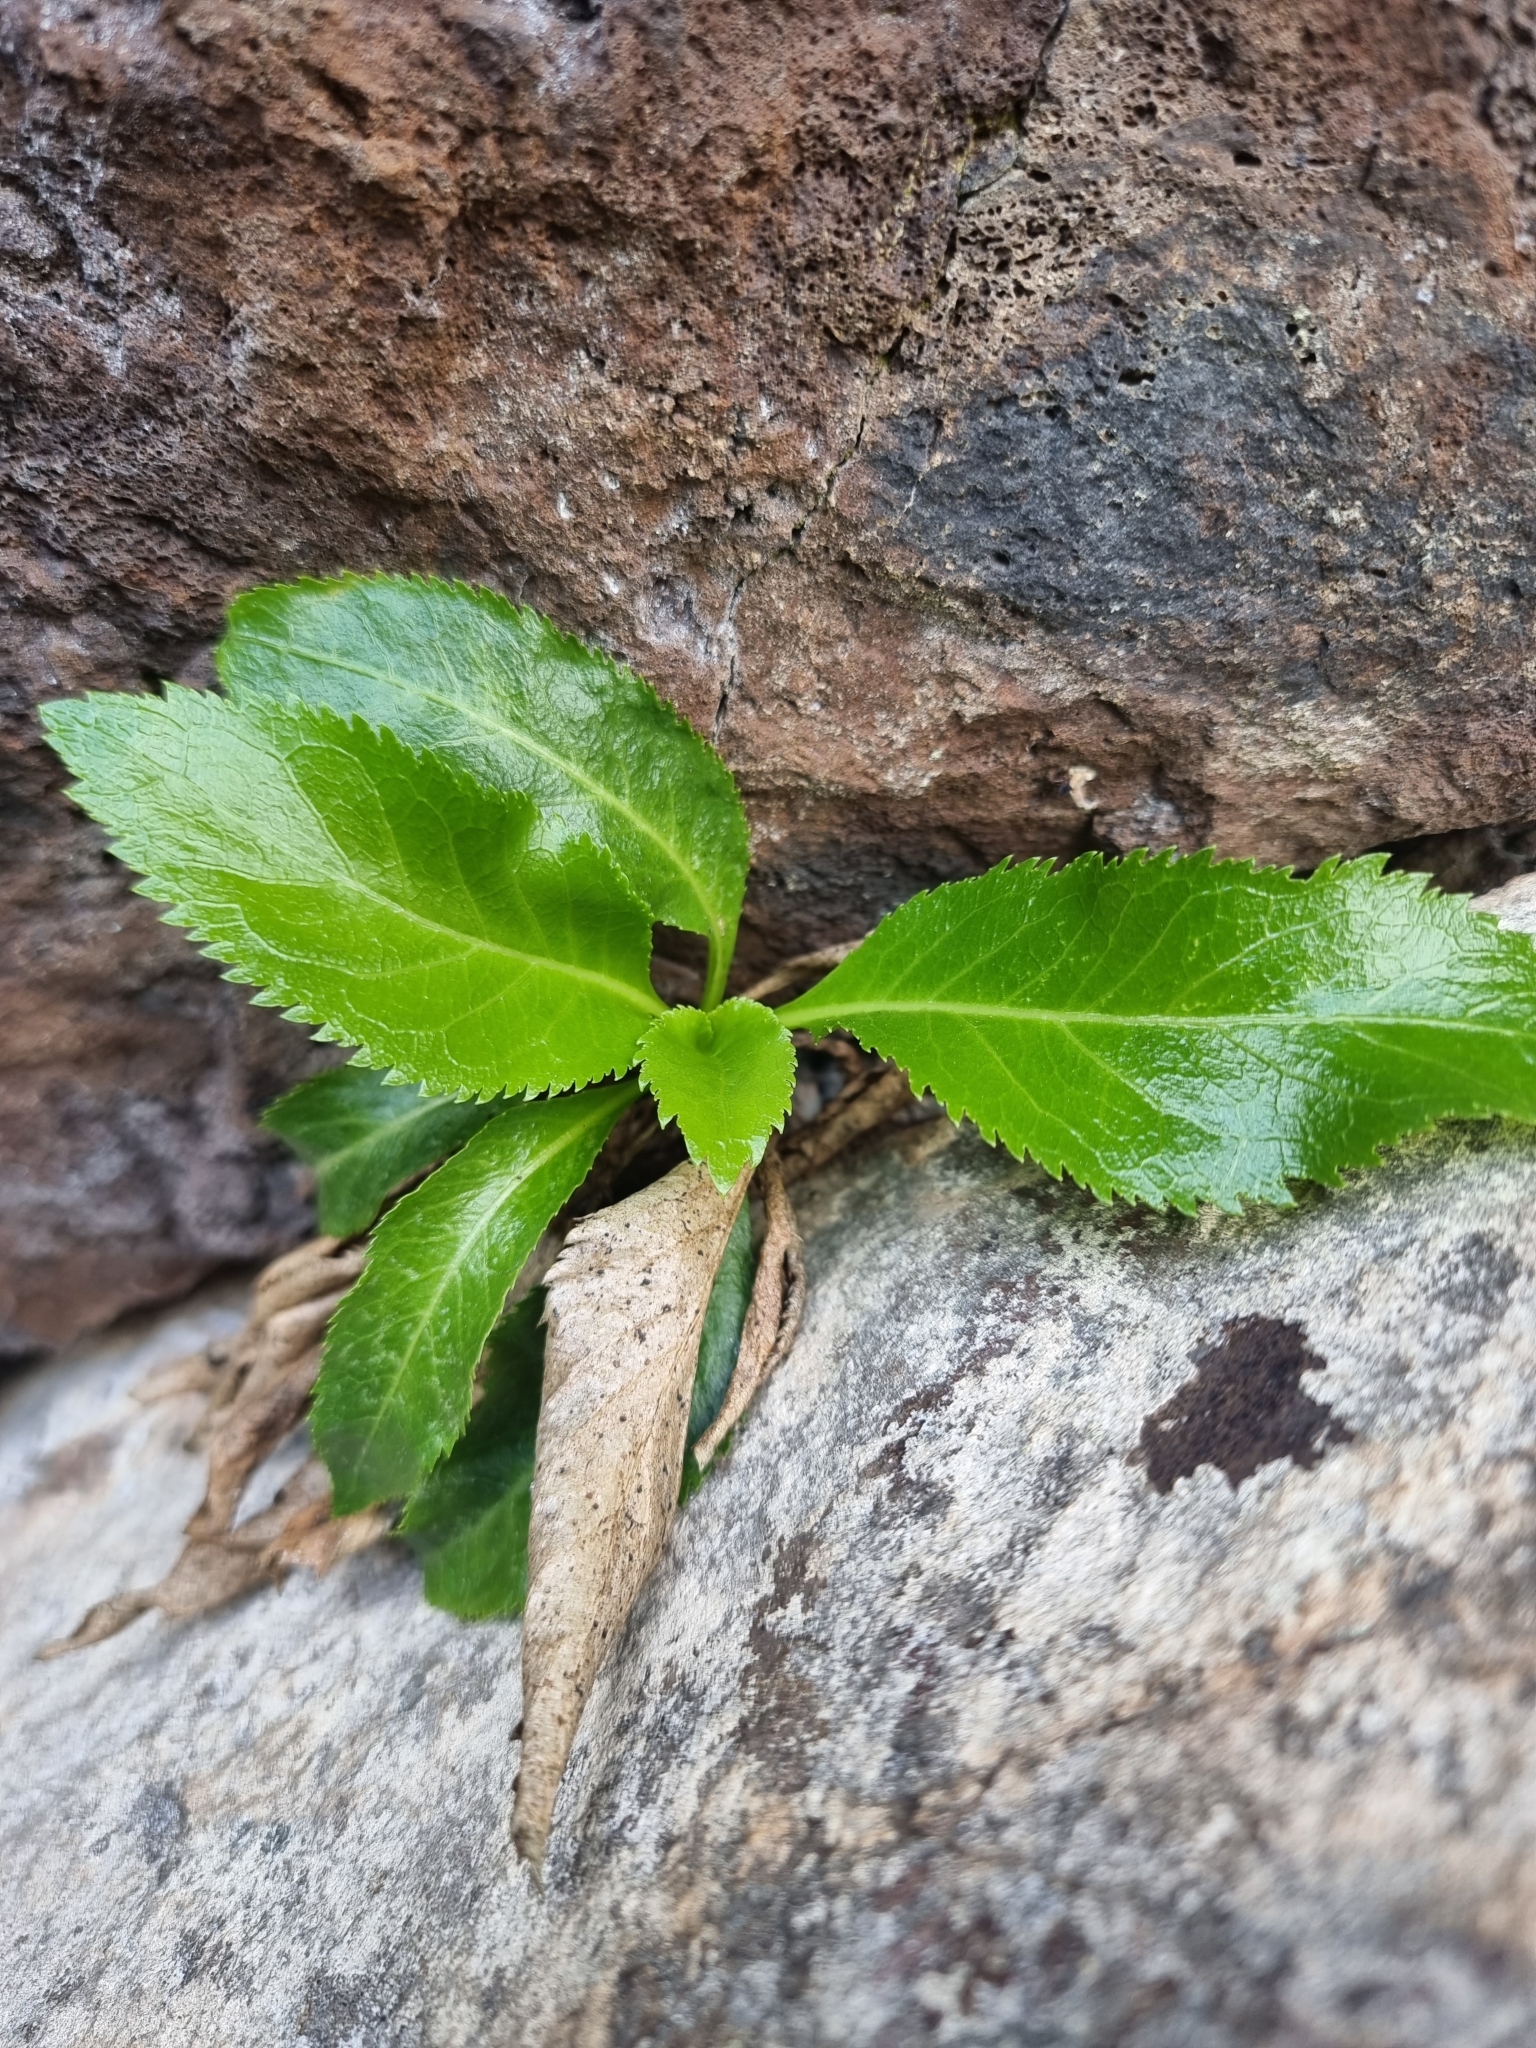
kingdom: Plantae
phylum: Tracheophyta
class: Magnoliopsida
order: Asterales
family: Campanulaceae
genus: Musschia
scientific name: Musschia aurea
